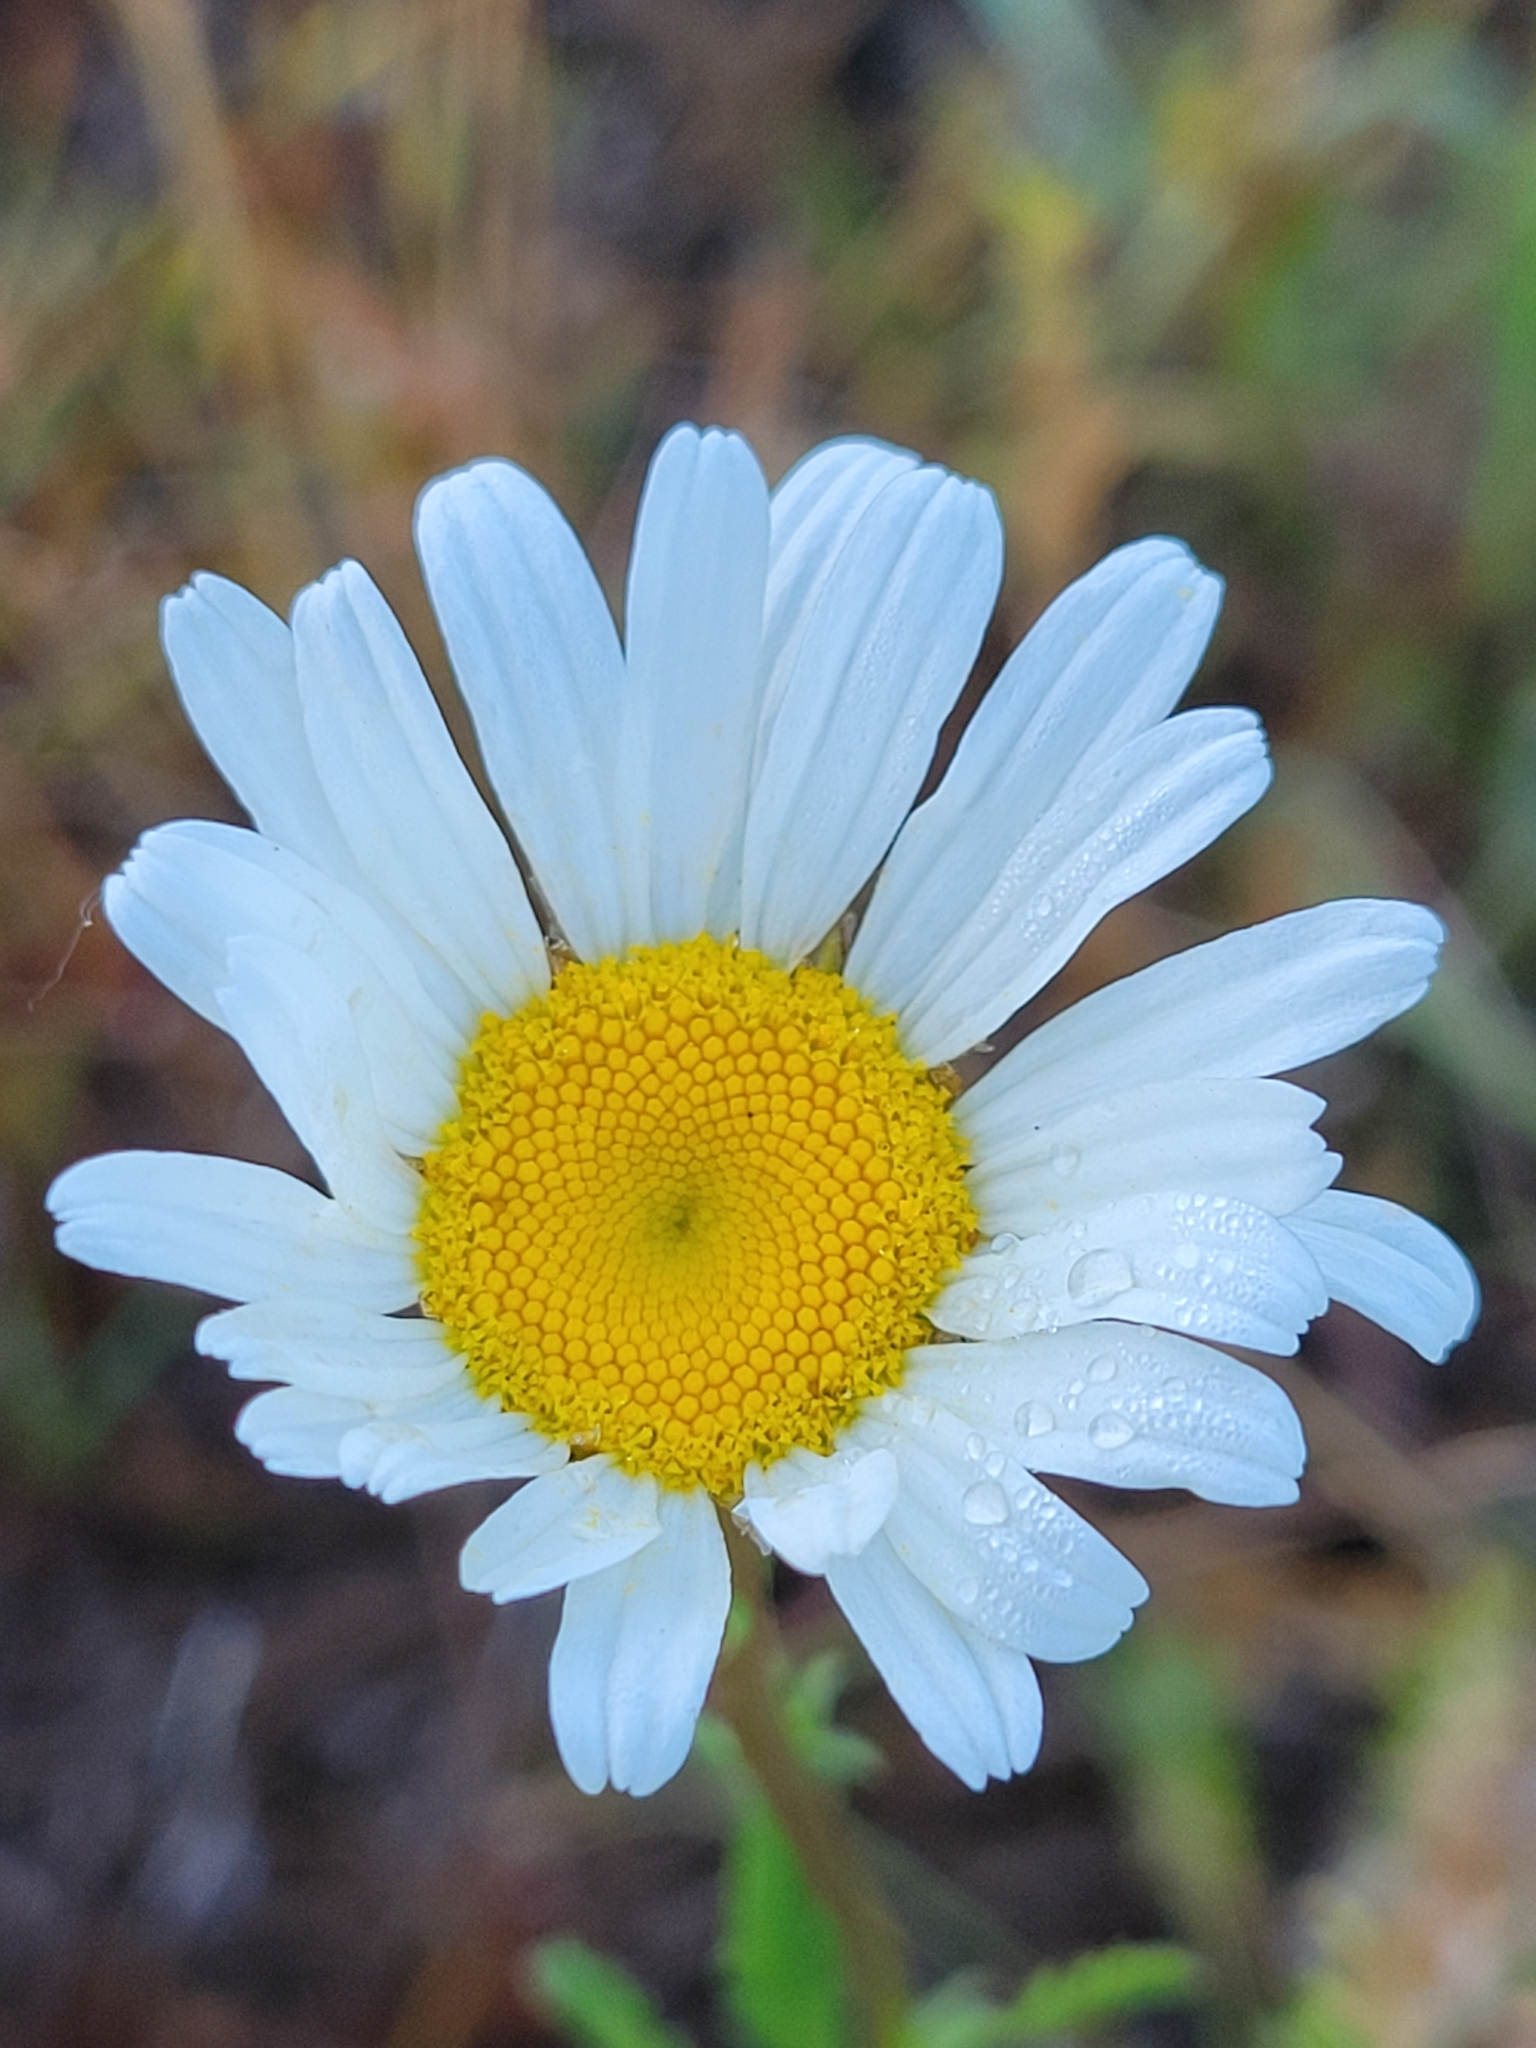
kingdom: Plantae
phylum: Tracheophyta
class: Magnoliopsida
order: Asterales
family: Asteraceae
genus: Leucanthemum
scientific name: Leucanthemum vulgare
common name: Oxeye daisy
